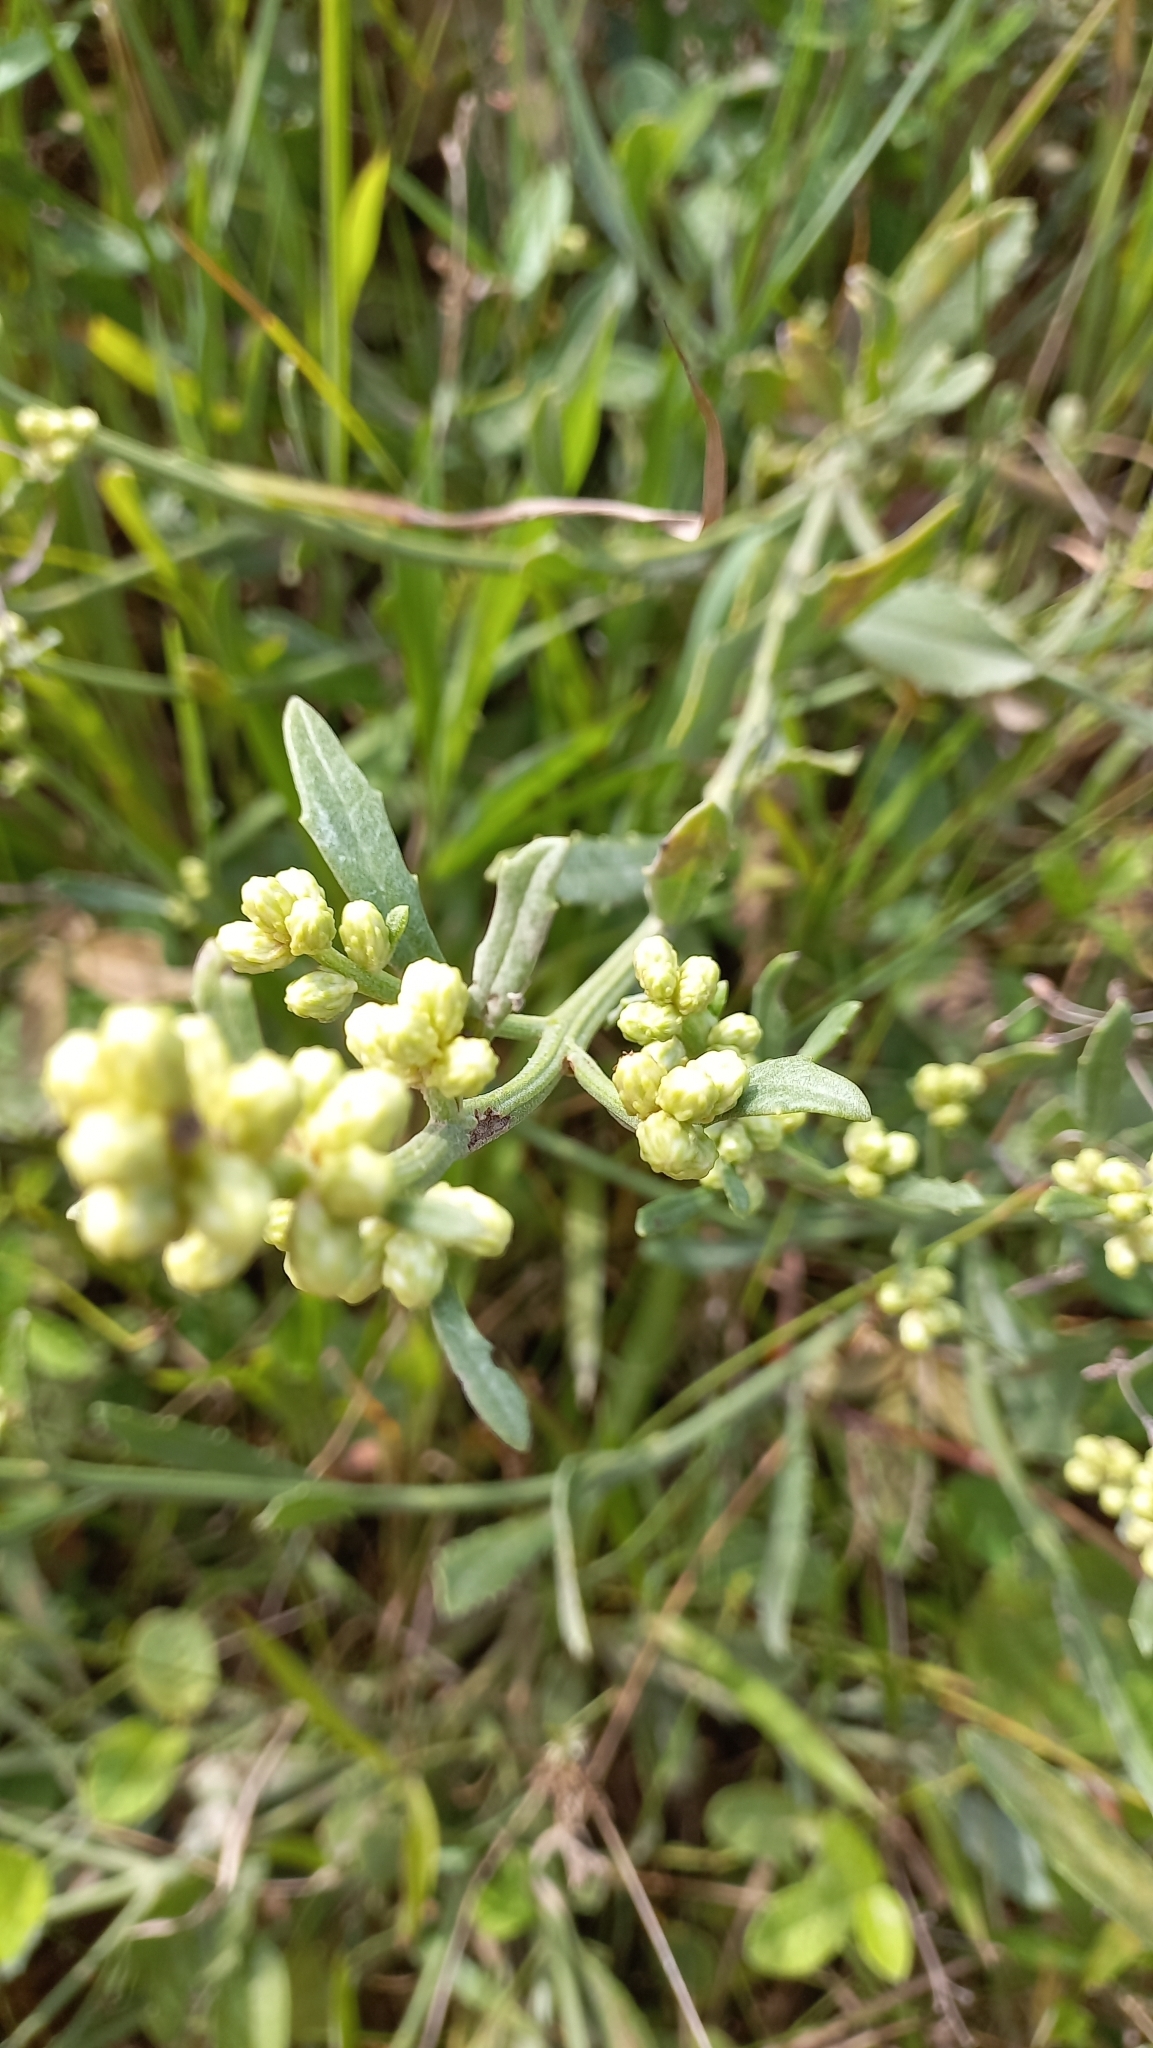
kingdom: Plantae
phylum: Tracheophyta
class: Magnoliopsida
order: Asterales
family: Asteraceae
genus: Baccharis
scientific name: Baccharis spicata
